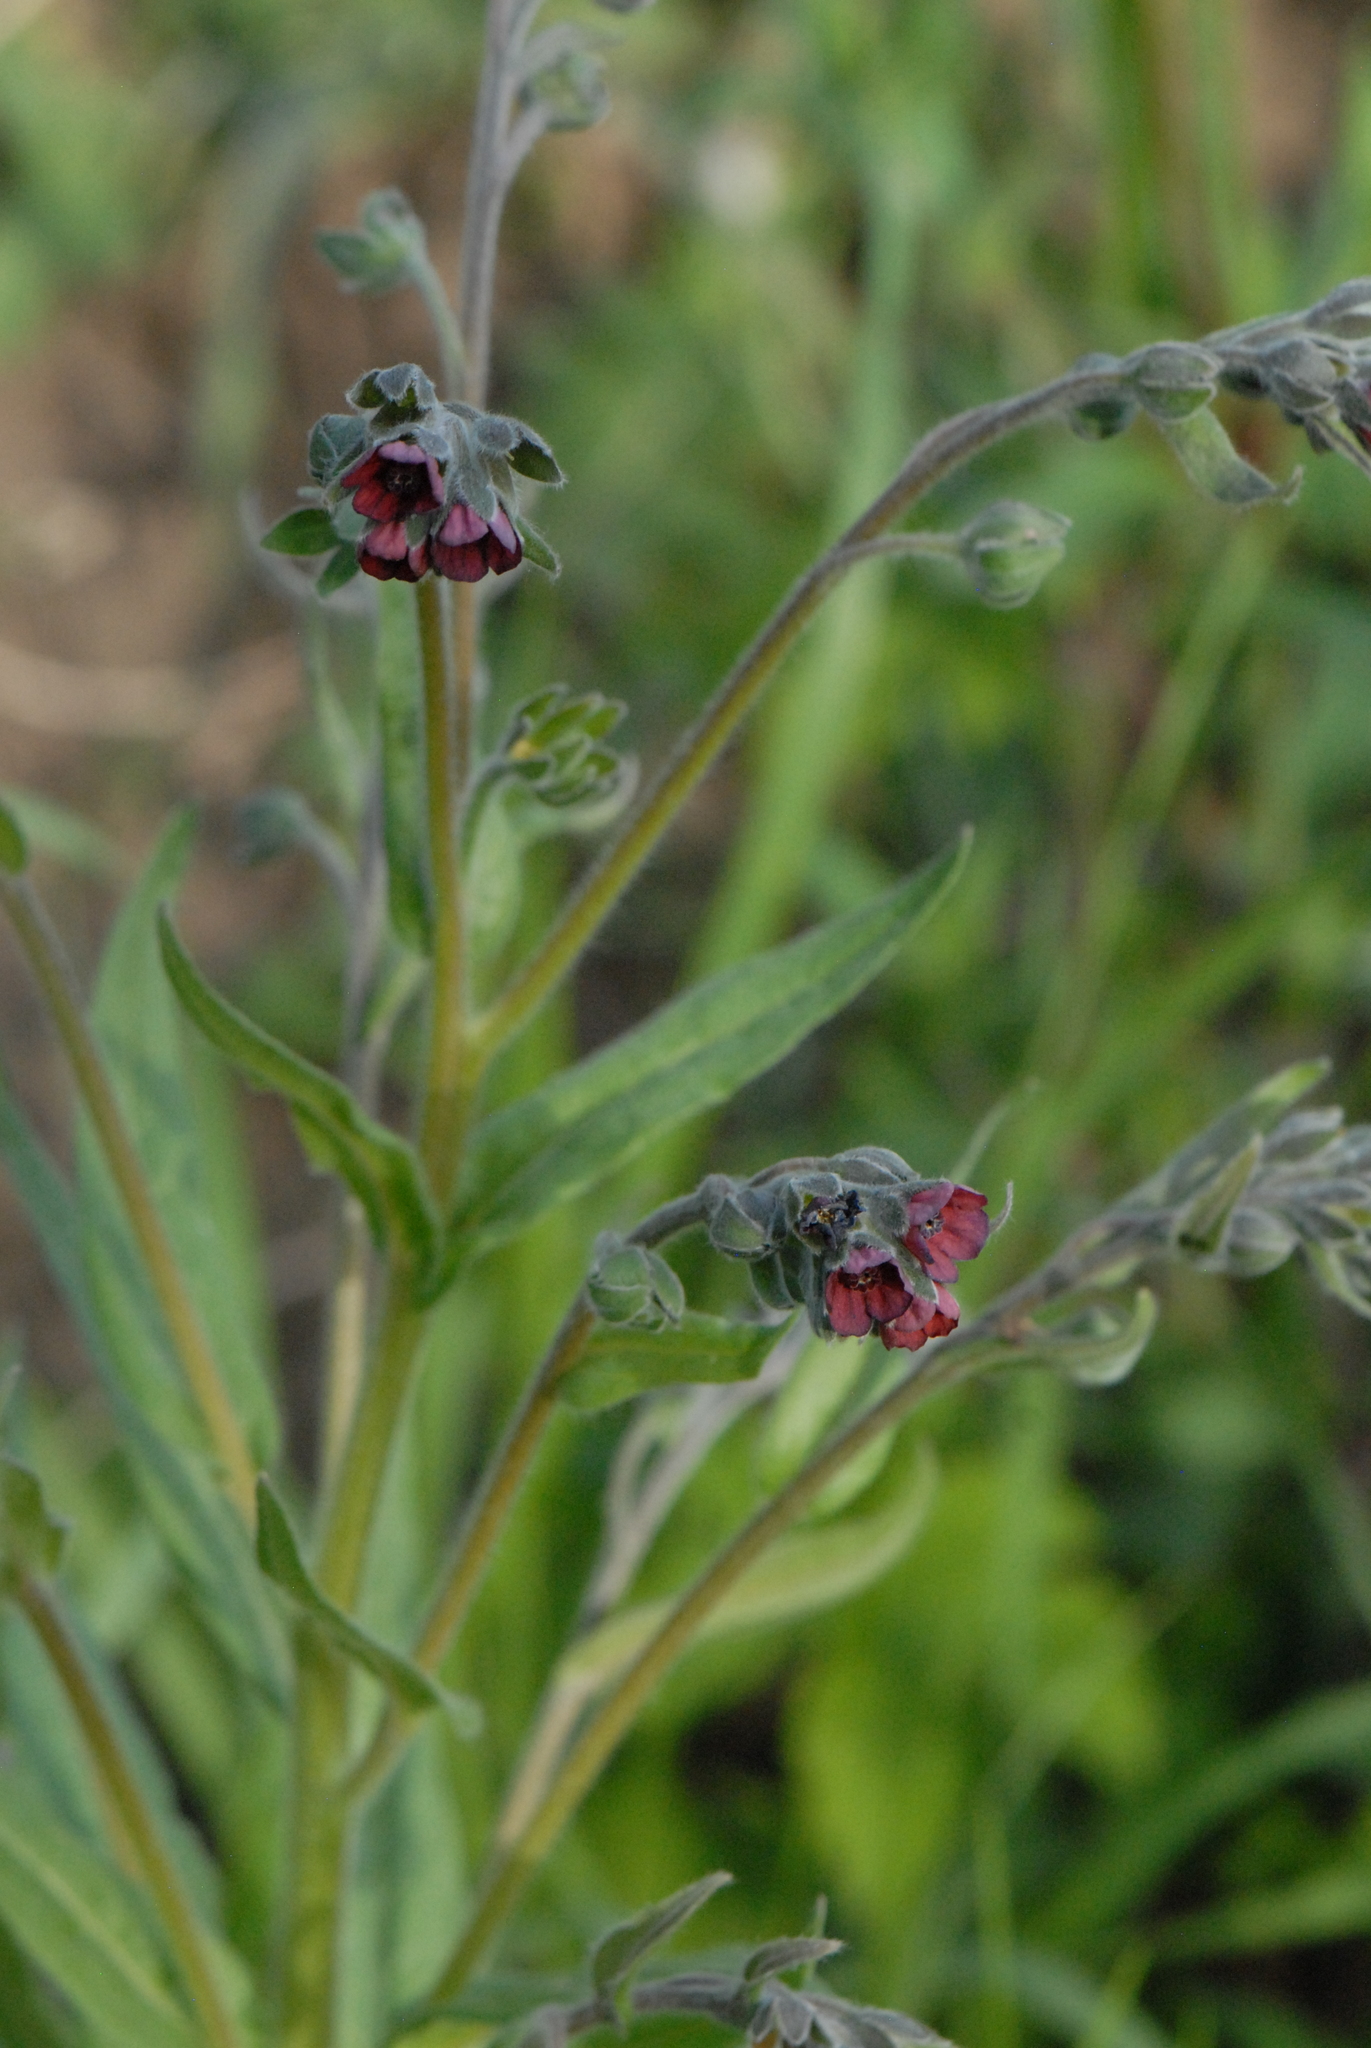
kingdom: Plantae
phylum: Tracheophyta
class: Magnoliopsida
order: Boraginales
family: Boraginaceae
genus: Cynoglossum
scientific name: Cynoglossum officinale
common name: Hound's-tongue
